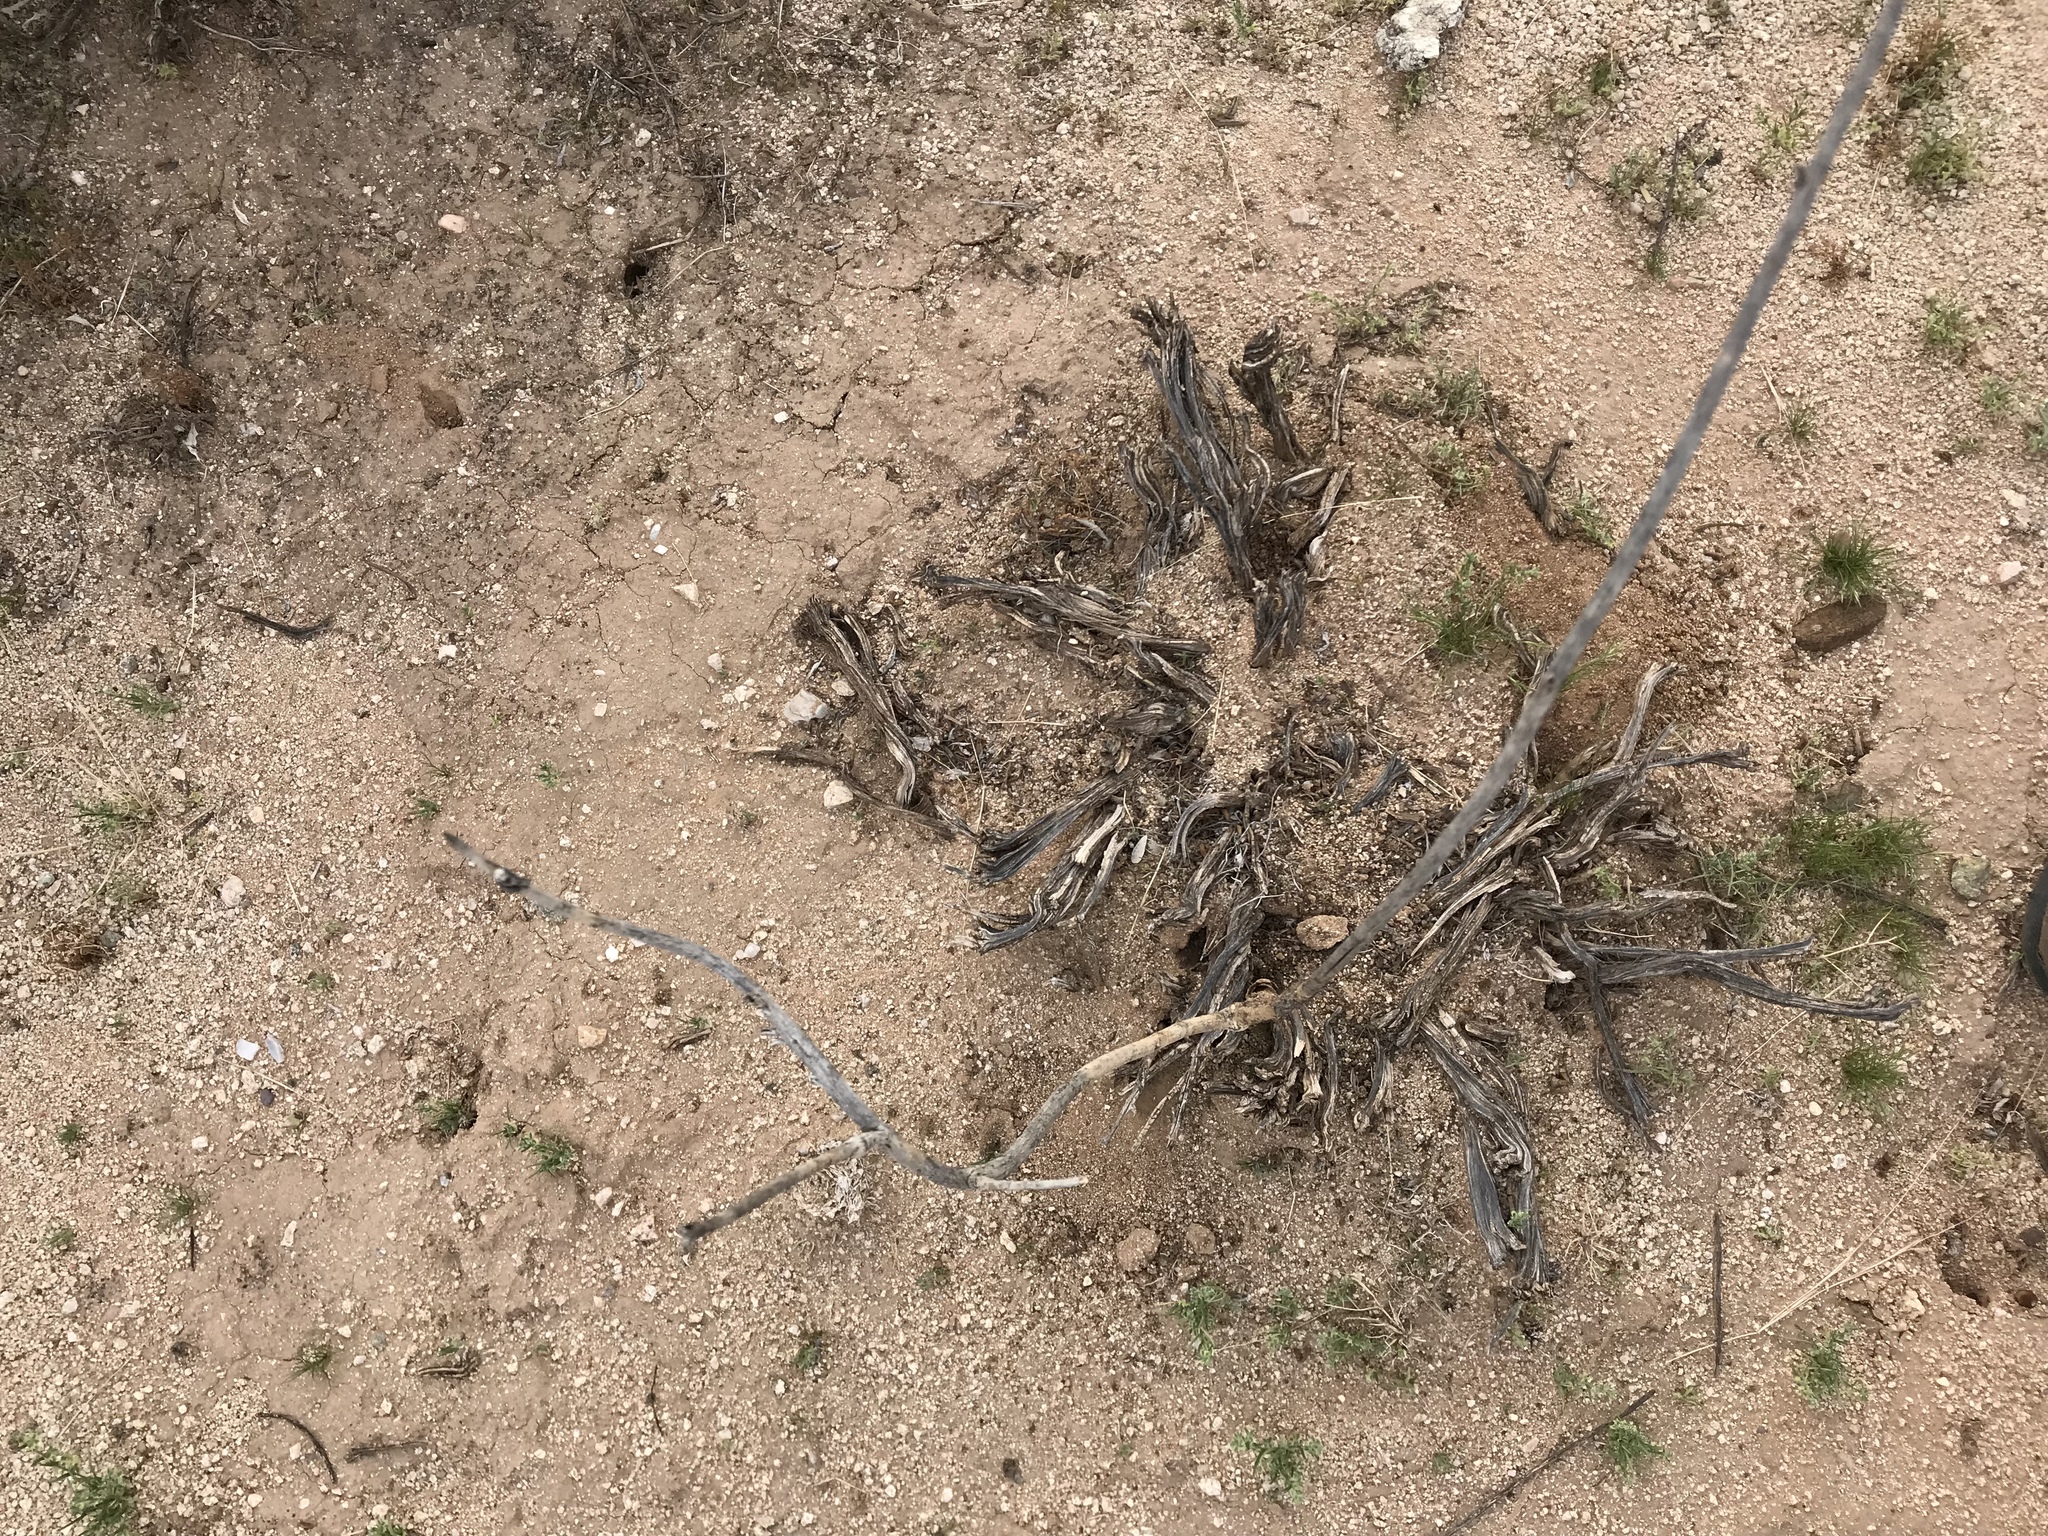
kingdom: Plantae
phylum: Tracheophyta
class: Magnoliopsida
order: Caryophyllales
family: Cactaceae
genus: Peniocereus
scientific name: Peniocereus greggii
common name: Desert night-blooming cereus
